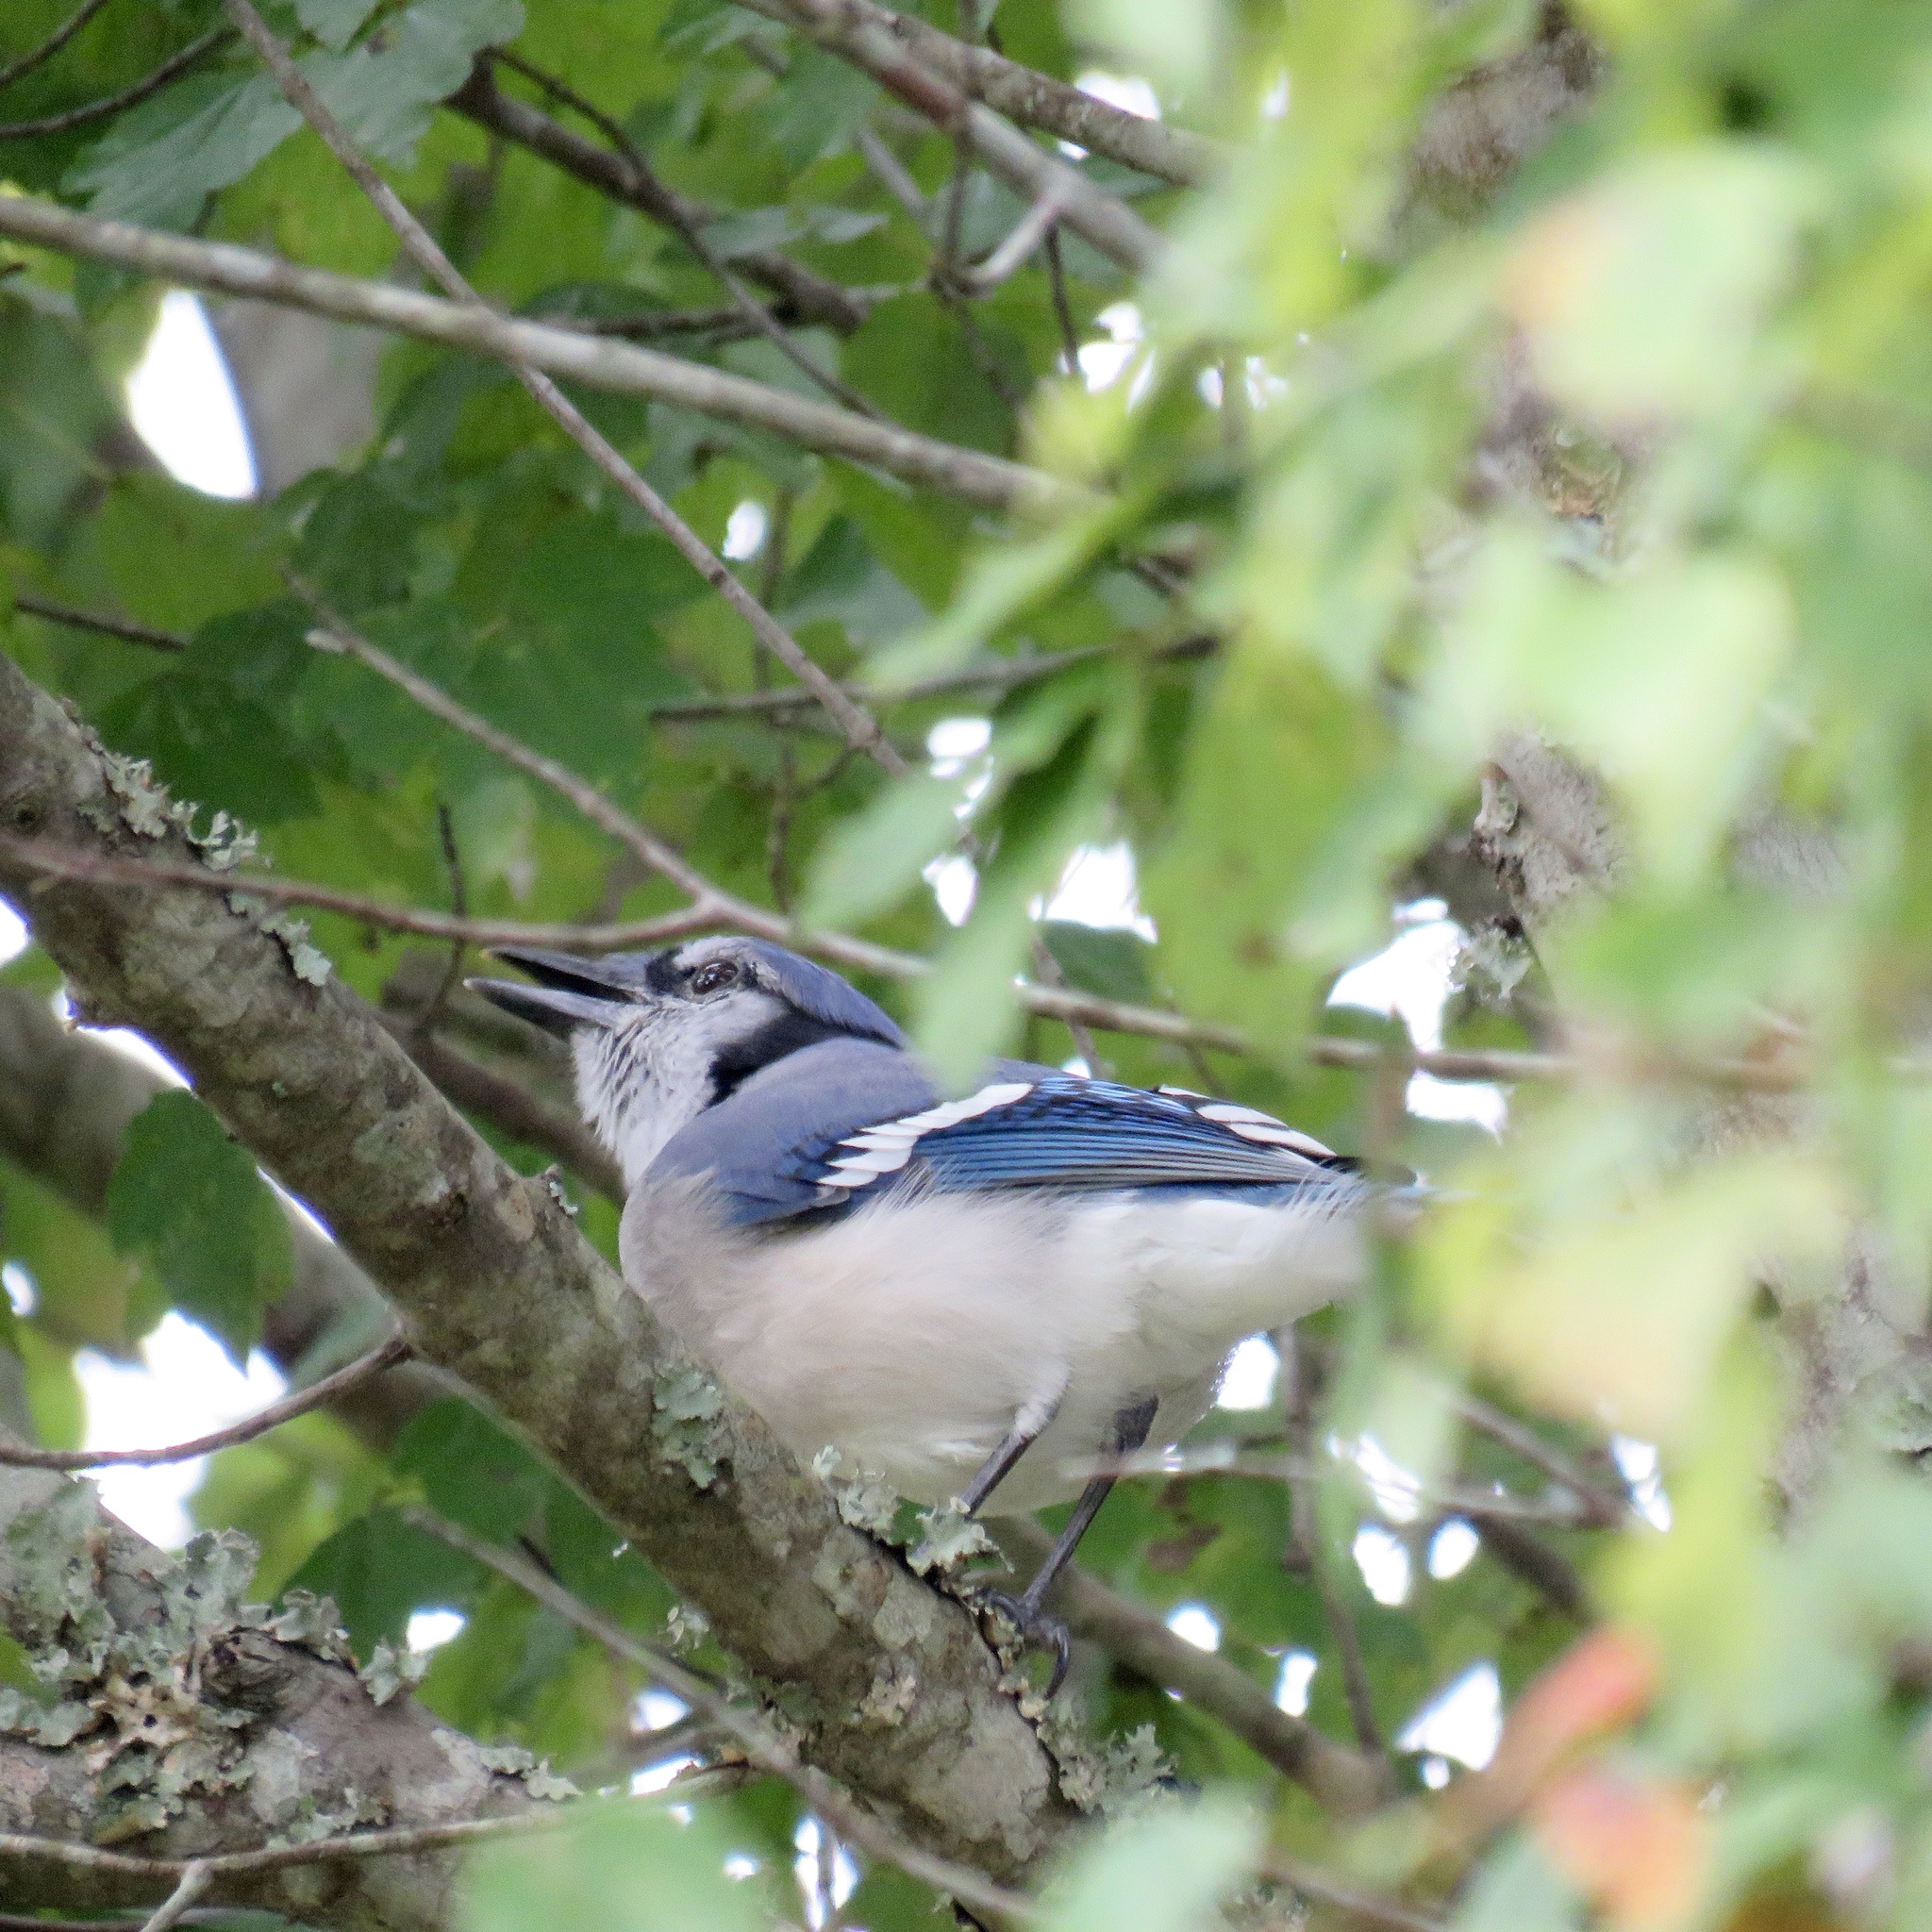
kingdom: Animalia
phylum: Chordata
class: Aves
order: Passeriformes
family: Corvidae
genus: Cyanocitta
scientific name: Cyanocitta cristata
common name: Blue jay
